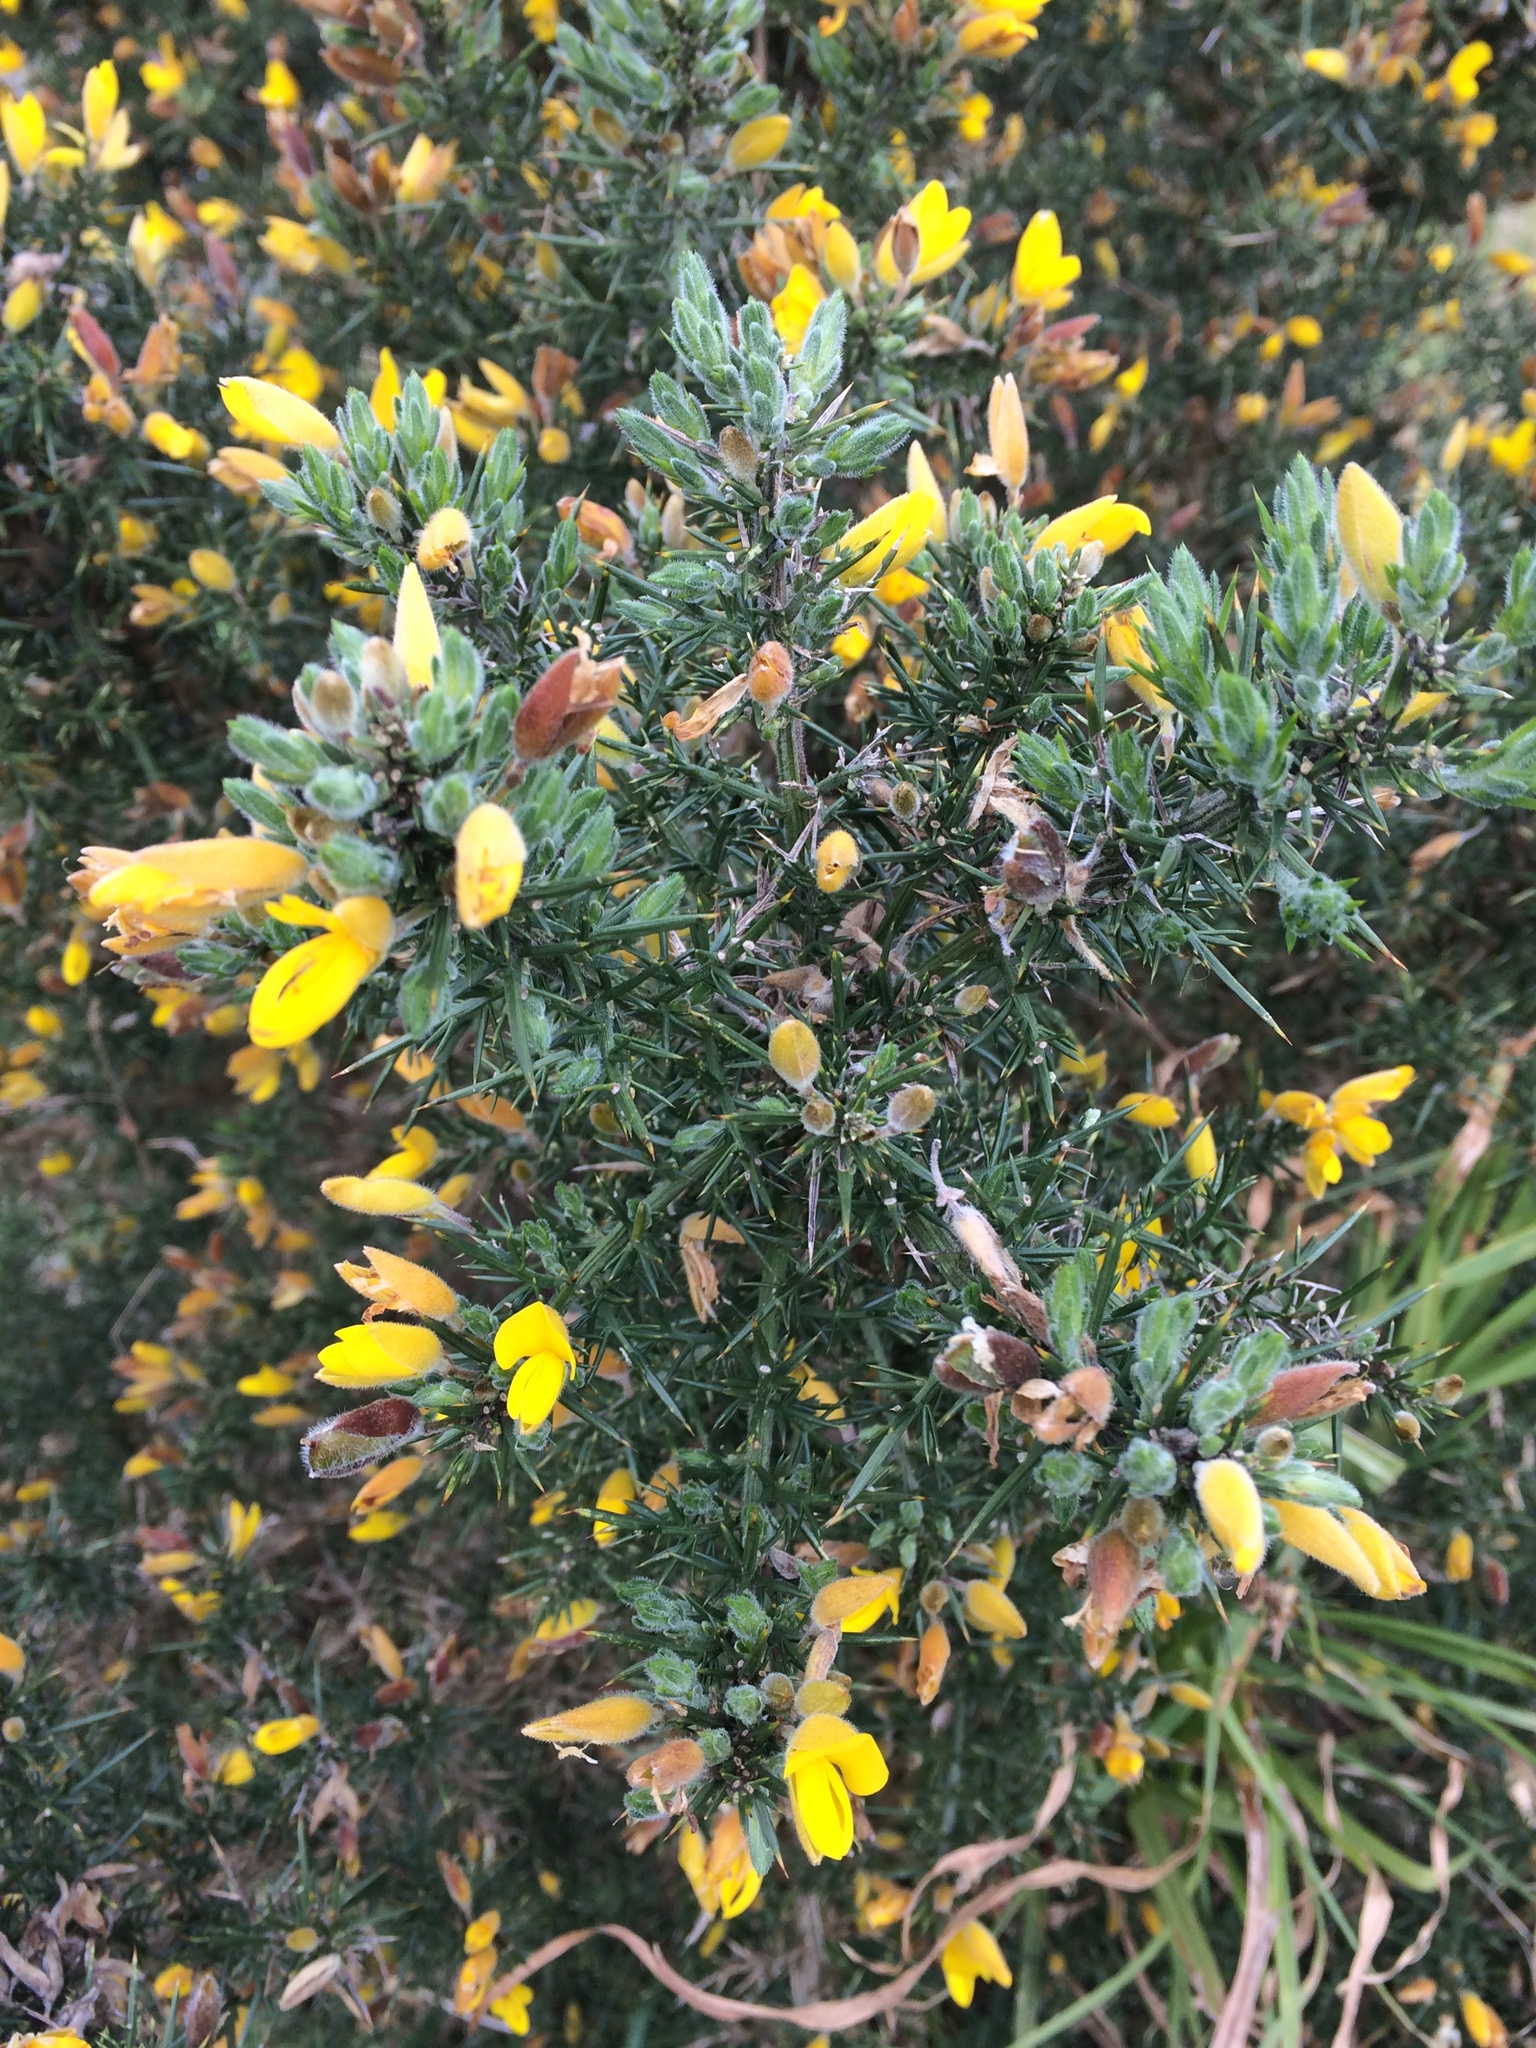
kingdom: Plantae
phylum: Tracheophyta
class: Magnoliopsida
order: Fabales
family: Fabaceae
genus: Ulex
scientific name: Ulex europaeus
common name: Common gorse
